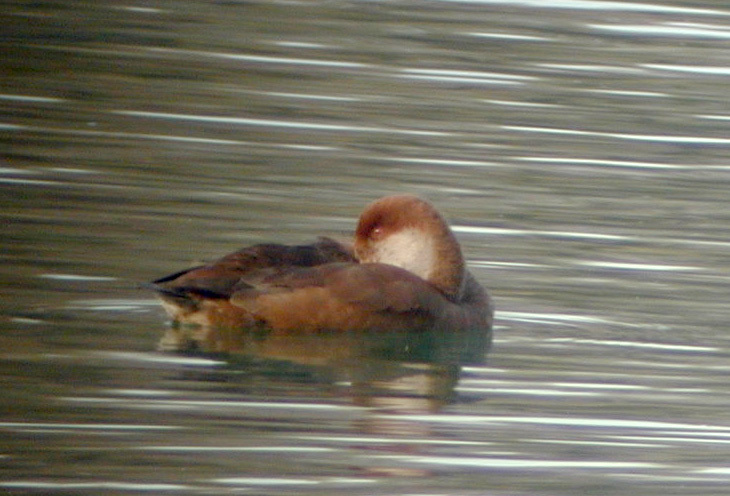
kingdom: Animalia
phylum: Chordata
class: Aves
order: Anseriformes
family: Anatidae
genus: Netta
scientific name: Netta rufina
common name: Red-crested pochard
